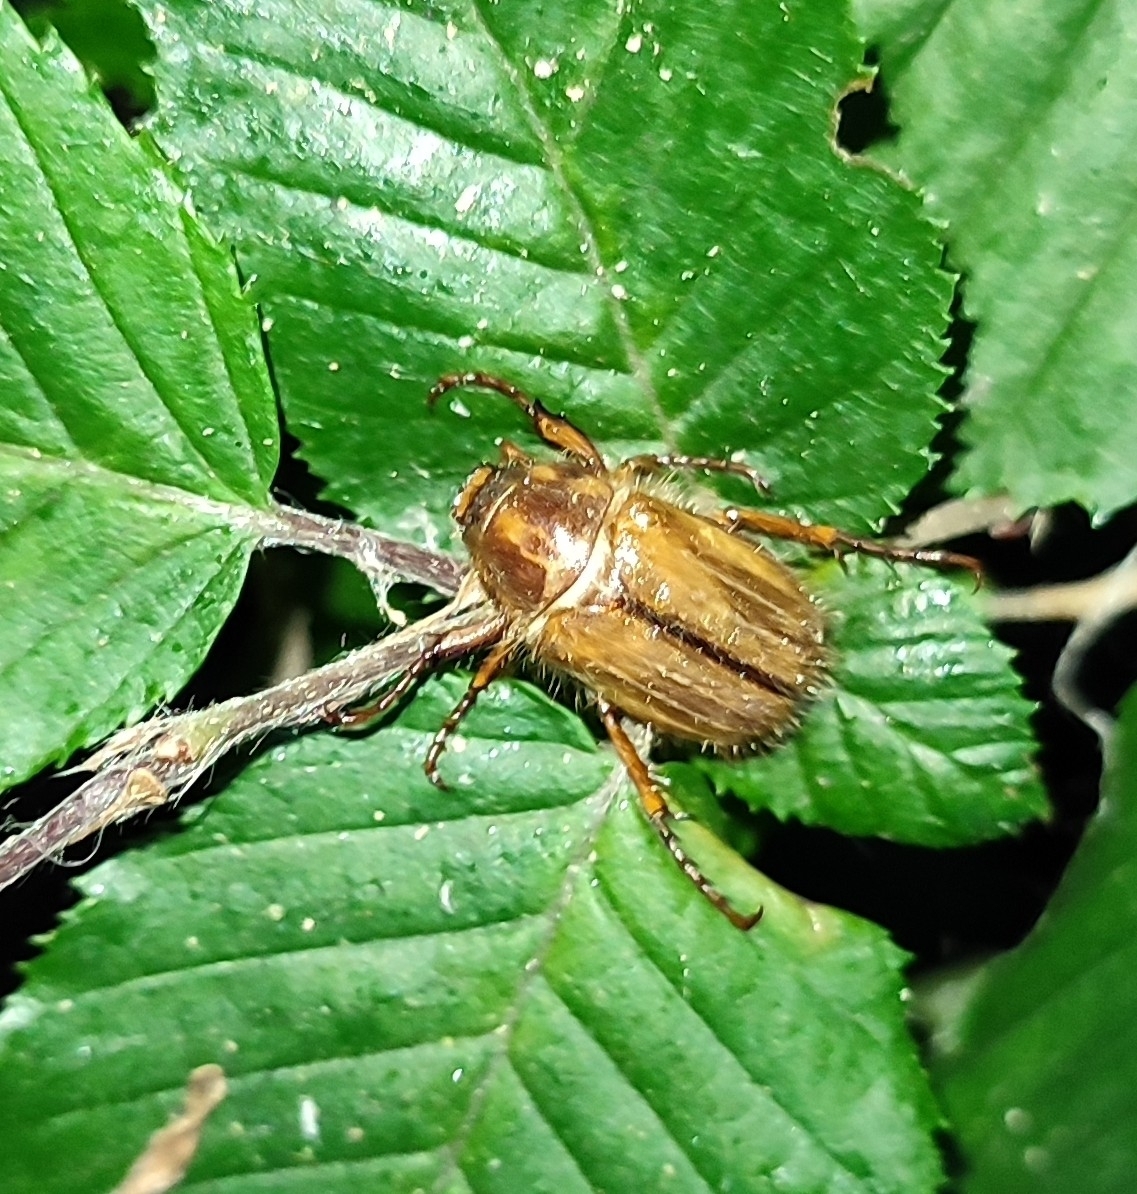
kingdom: Animalia
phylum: Arthropoda
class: Insecta
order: Coleoptera
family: Scarabaeidae
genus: Amphimallon
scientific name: Amphimallon solstitiale
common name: Summer chafer
